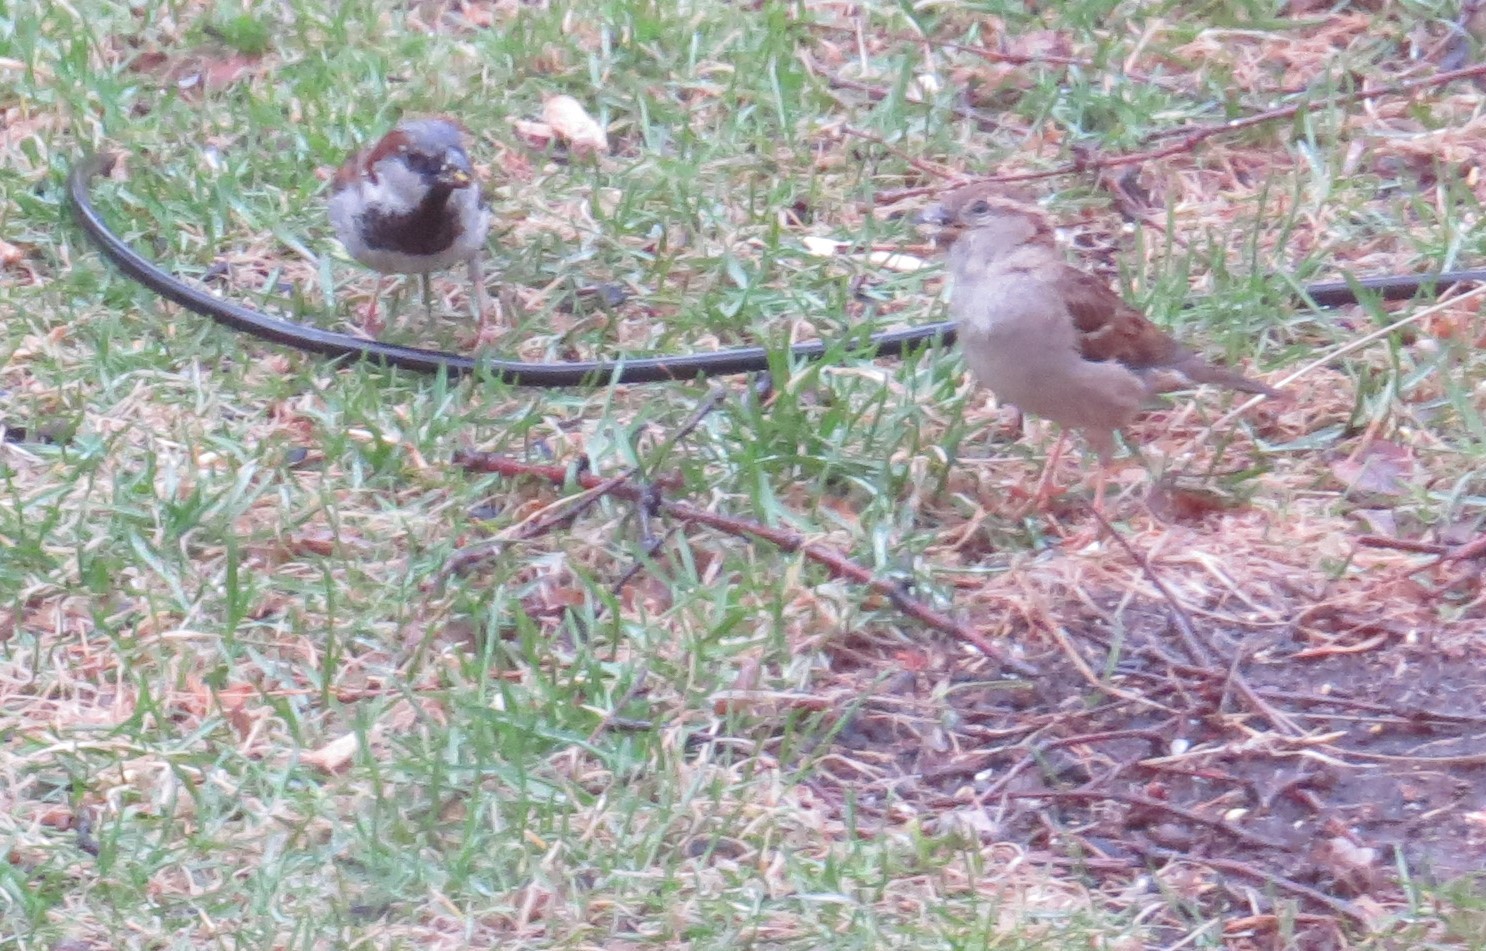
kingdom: Animalia
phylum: Chordata
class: Aves
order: Passeriformes
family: Passeridae
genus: Passer
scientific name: Passer domesticus
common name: House sparrow
